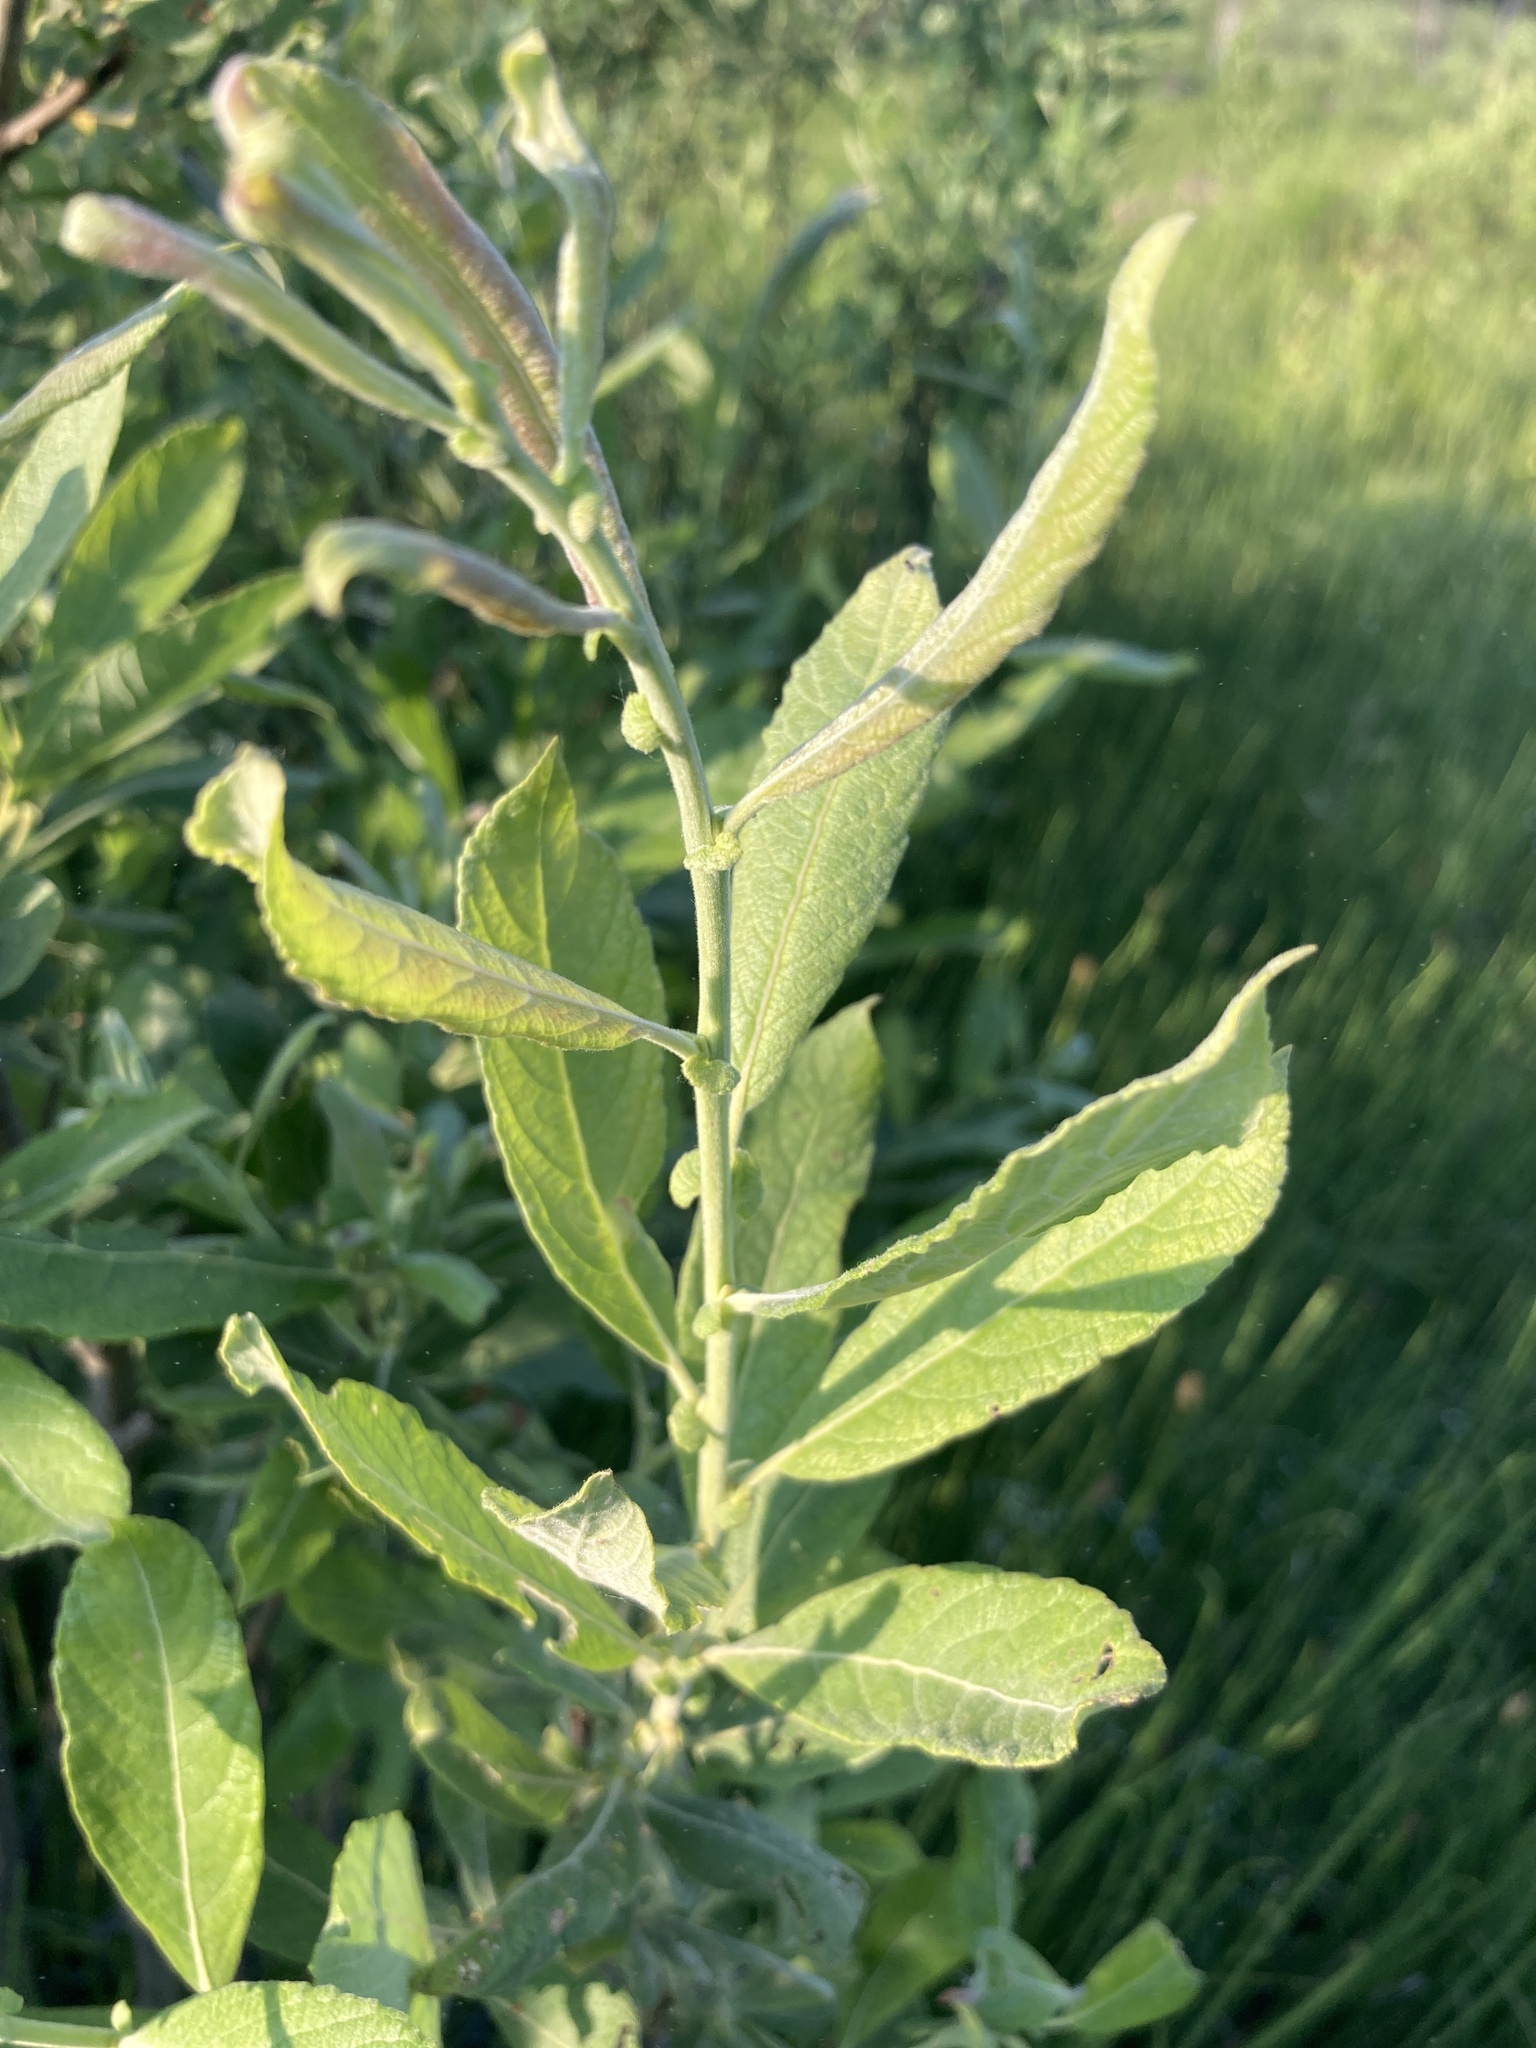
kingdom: Plantae
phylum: Tracheophyta
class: Magnoliopsida
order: Malpighiales
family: Salicaceae
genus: Salix
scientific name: Salix cinerea
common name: Common sallow
